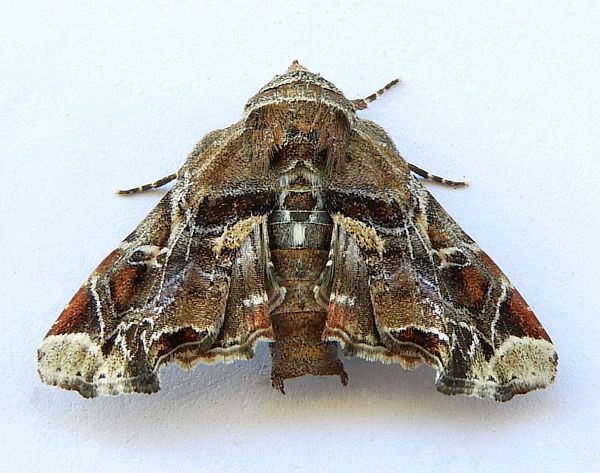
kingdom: Animalia
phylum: Arthropoda
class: Insecta
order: Lepidoptera
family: Euteliidae
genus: Eutelia
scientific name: Eutelia furcata
